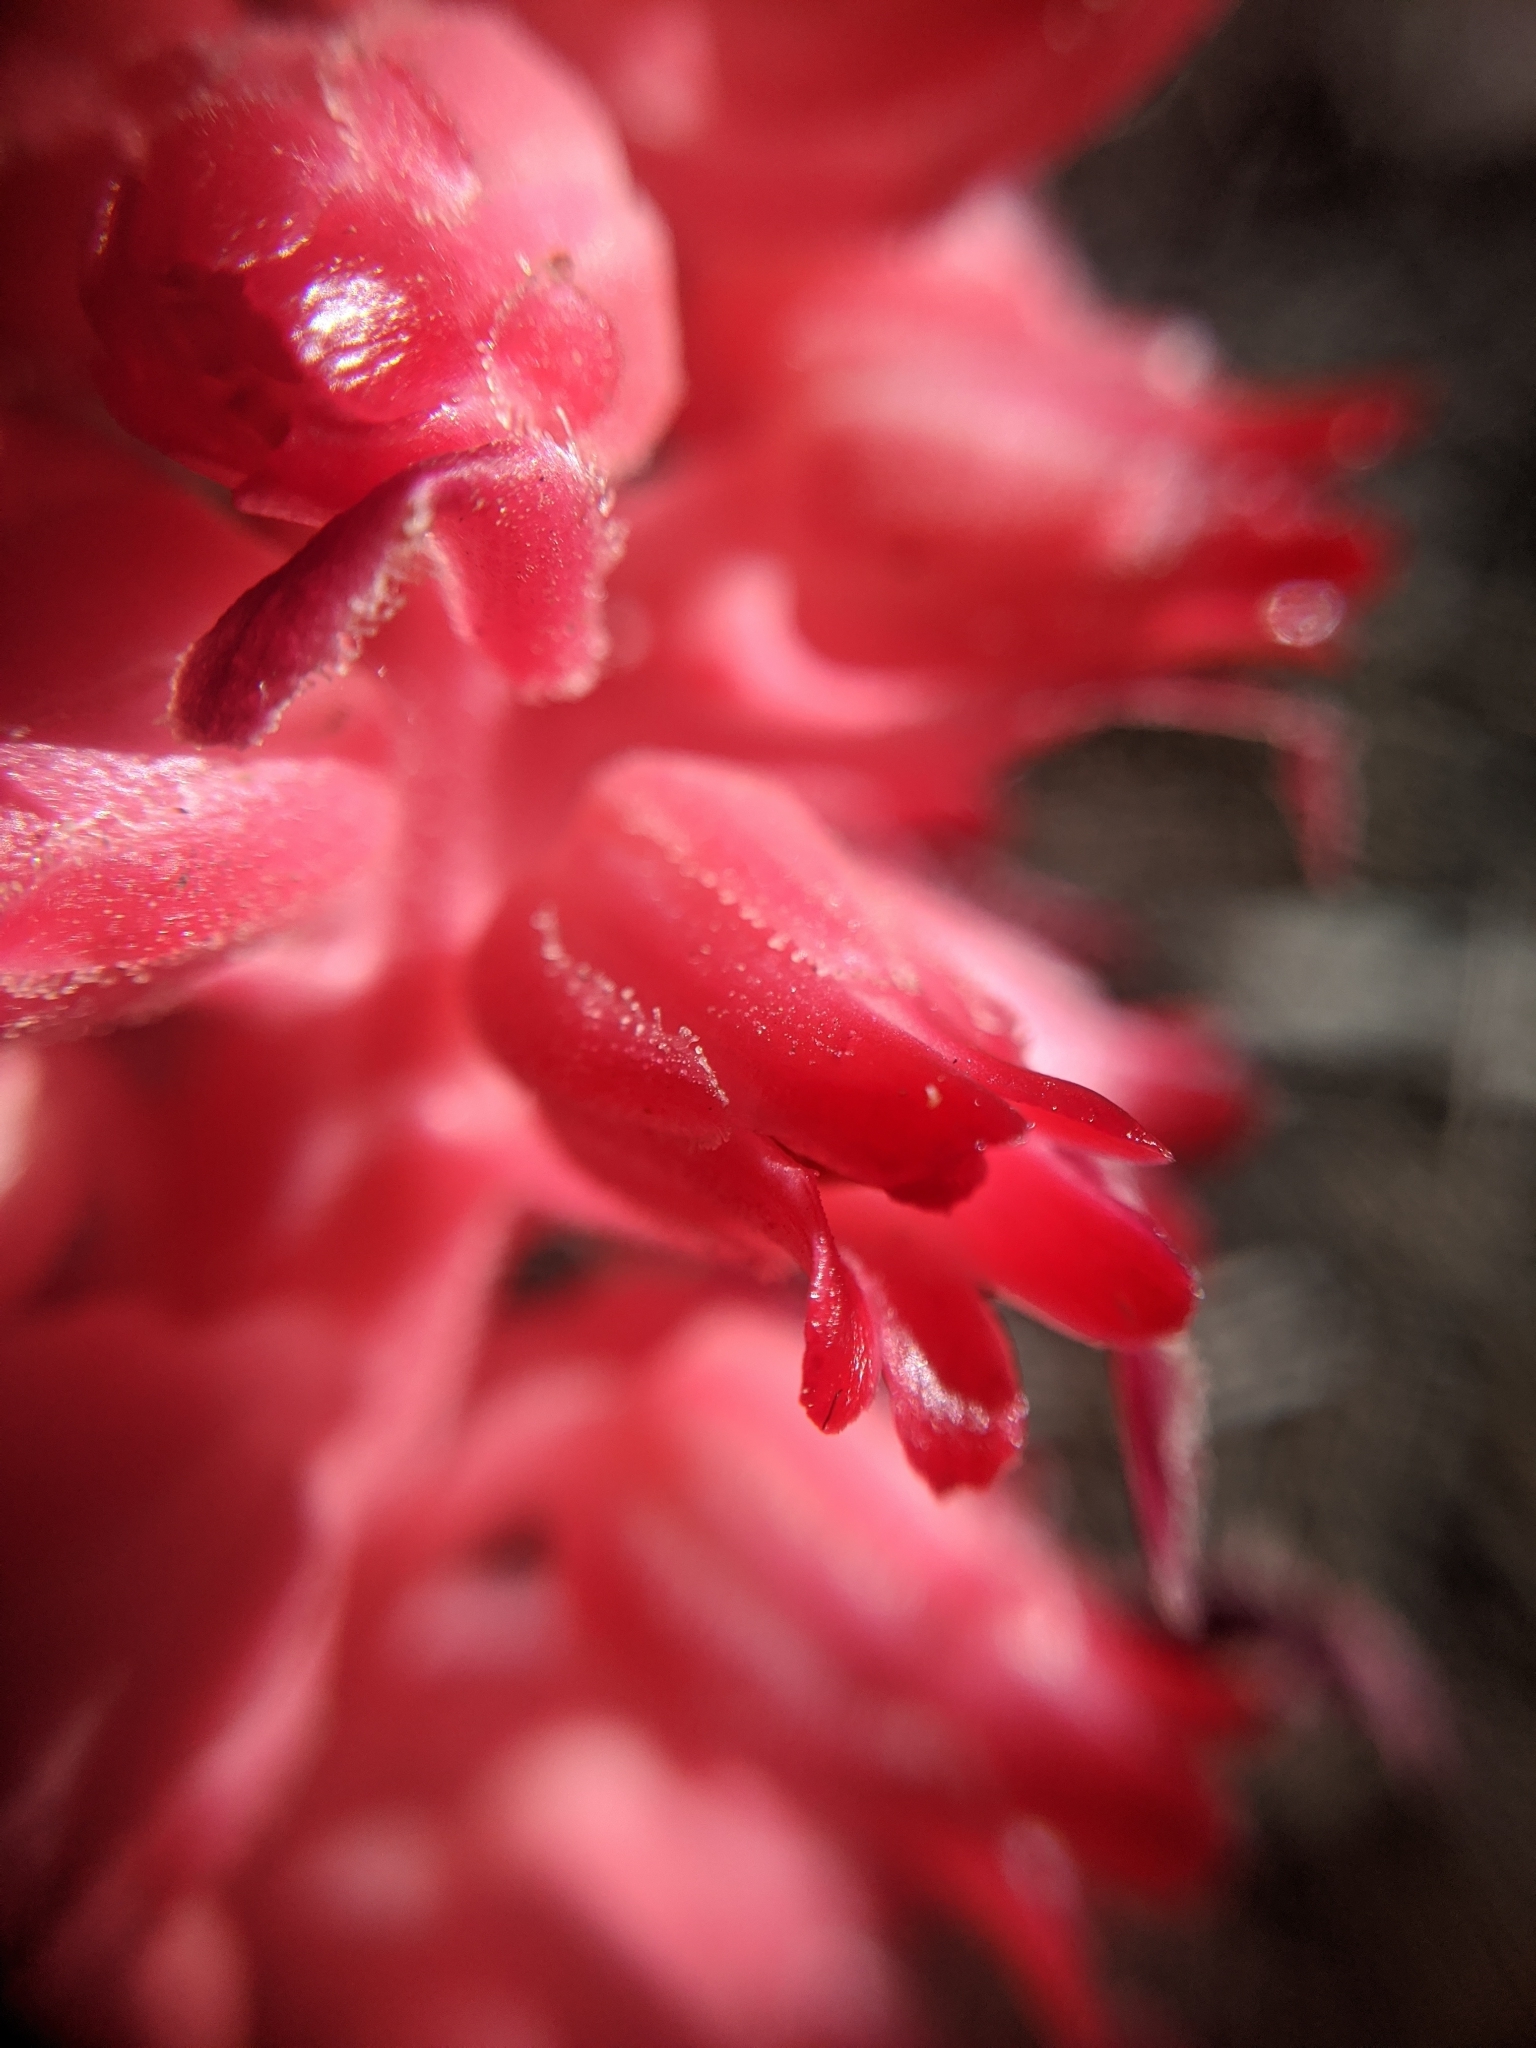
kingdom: Plantae
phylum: Tracheophyta
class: Magnoliopsida
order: Ericales
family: Ericaceae
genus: Sarcodes
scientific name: Sarcodes sanguinea
